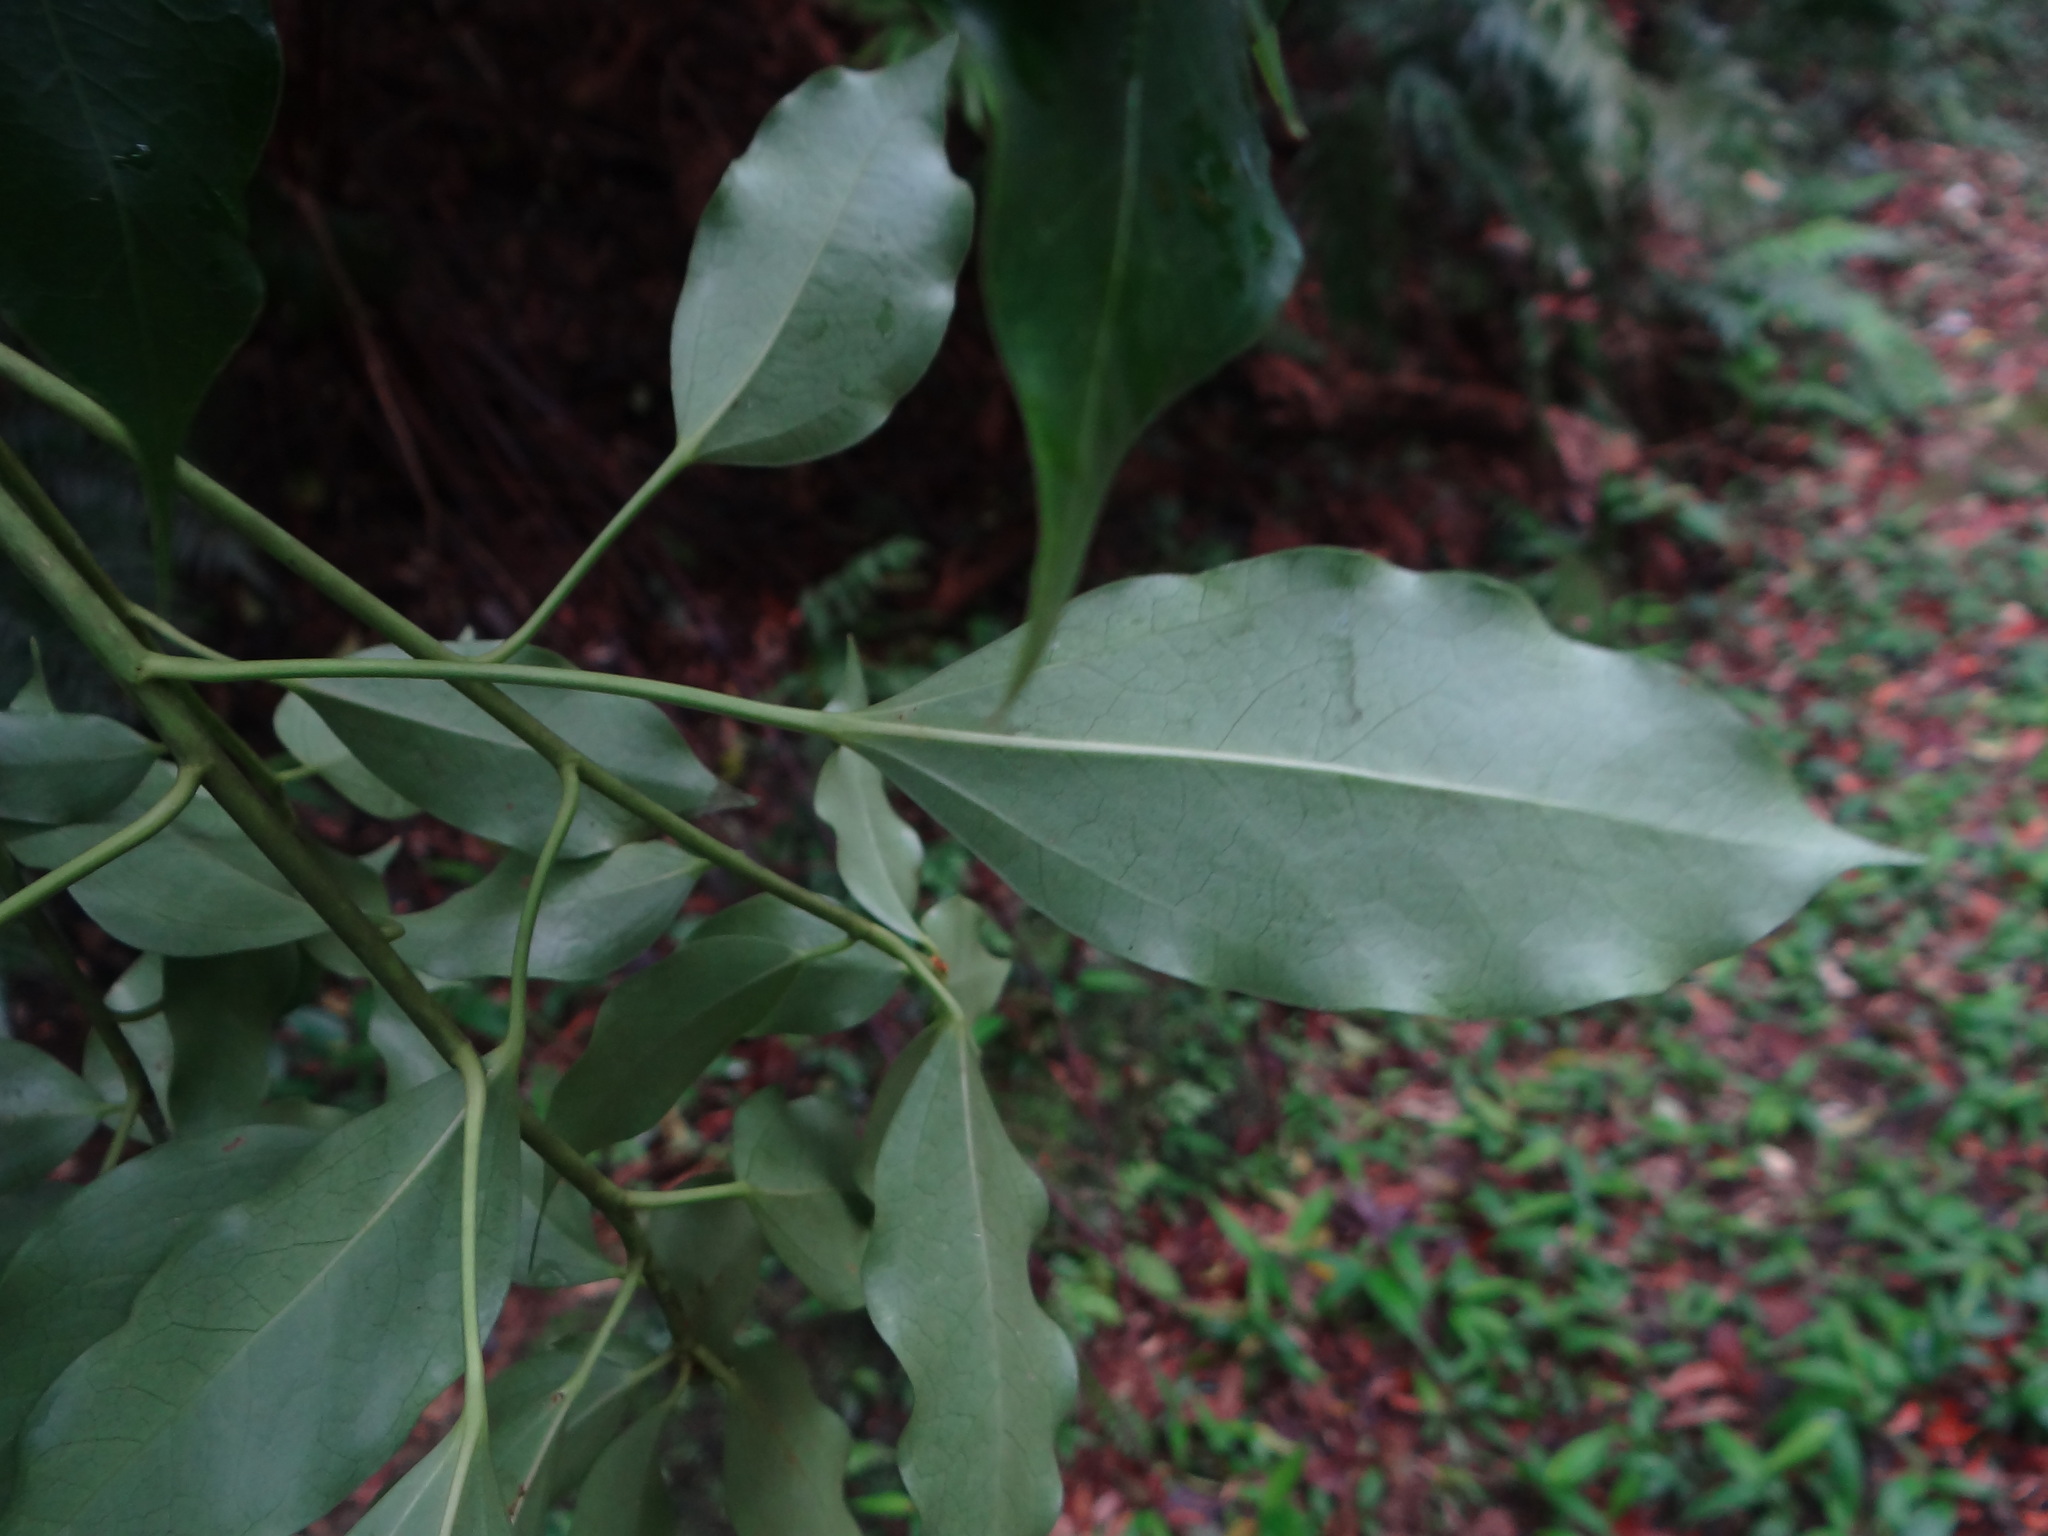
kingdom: Plantae
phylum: Tracheophyta
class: Magnoliopsida
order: Apiales
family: Araliaceae
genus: Dendropanax
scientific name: Dendropanax dentiger
